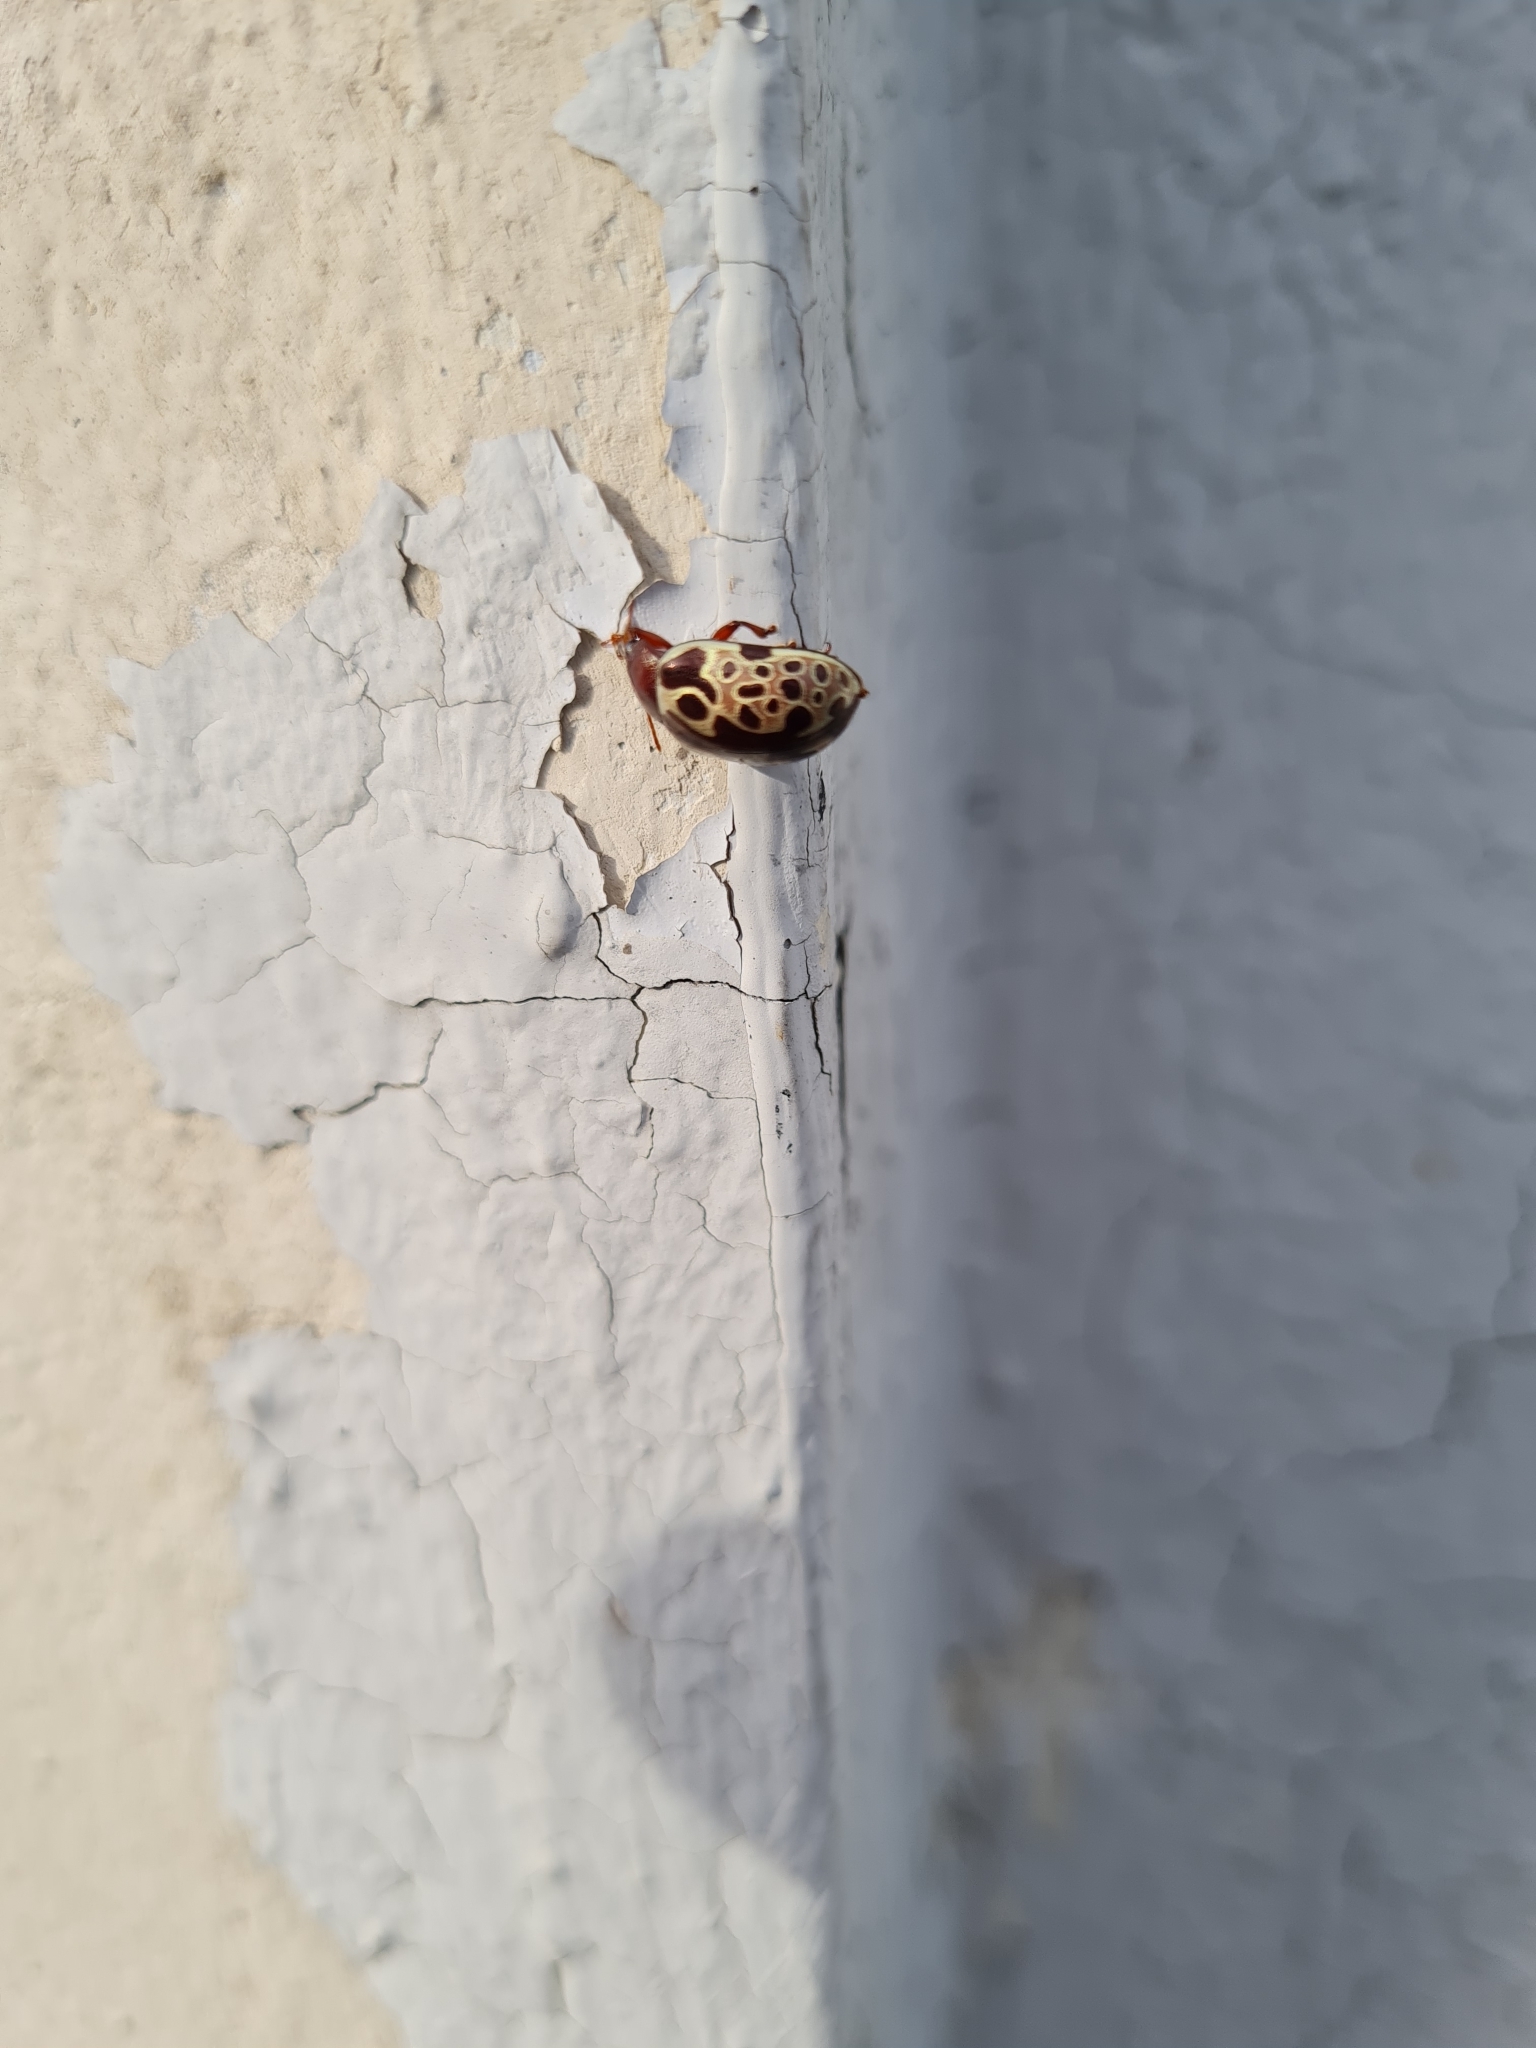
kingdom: Animalia
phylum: Arthropoda
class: Insecta
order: Coleoptera
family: Chrysomelidae
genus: Calligrapha
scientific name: Calligrapha argus
